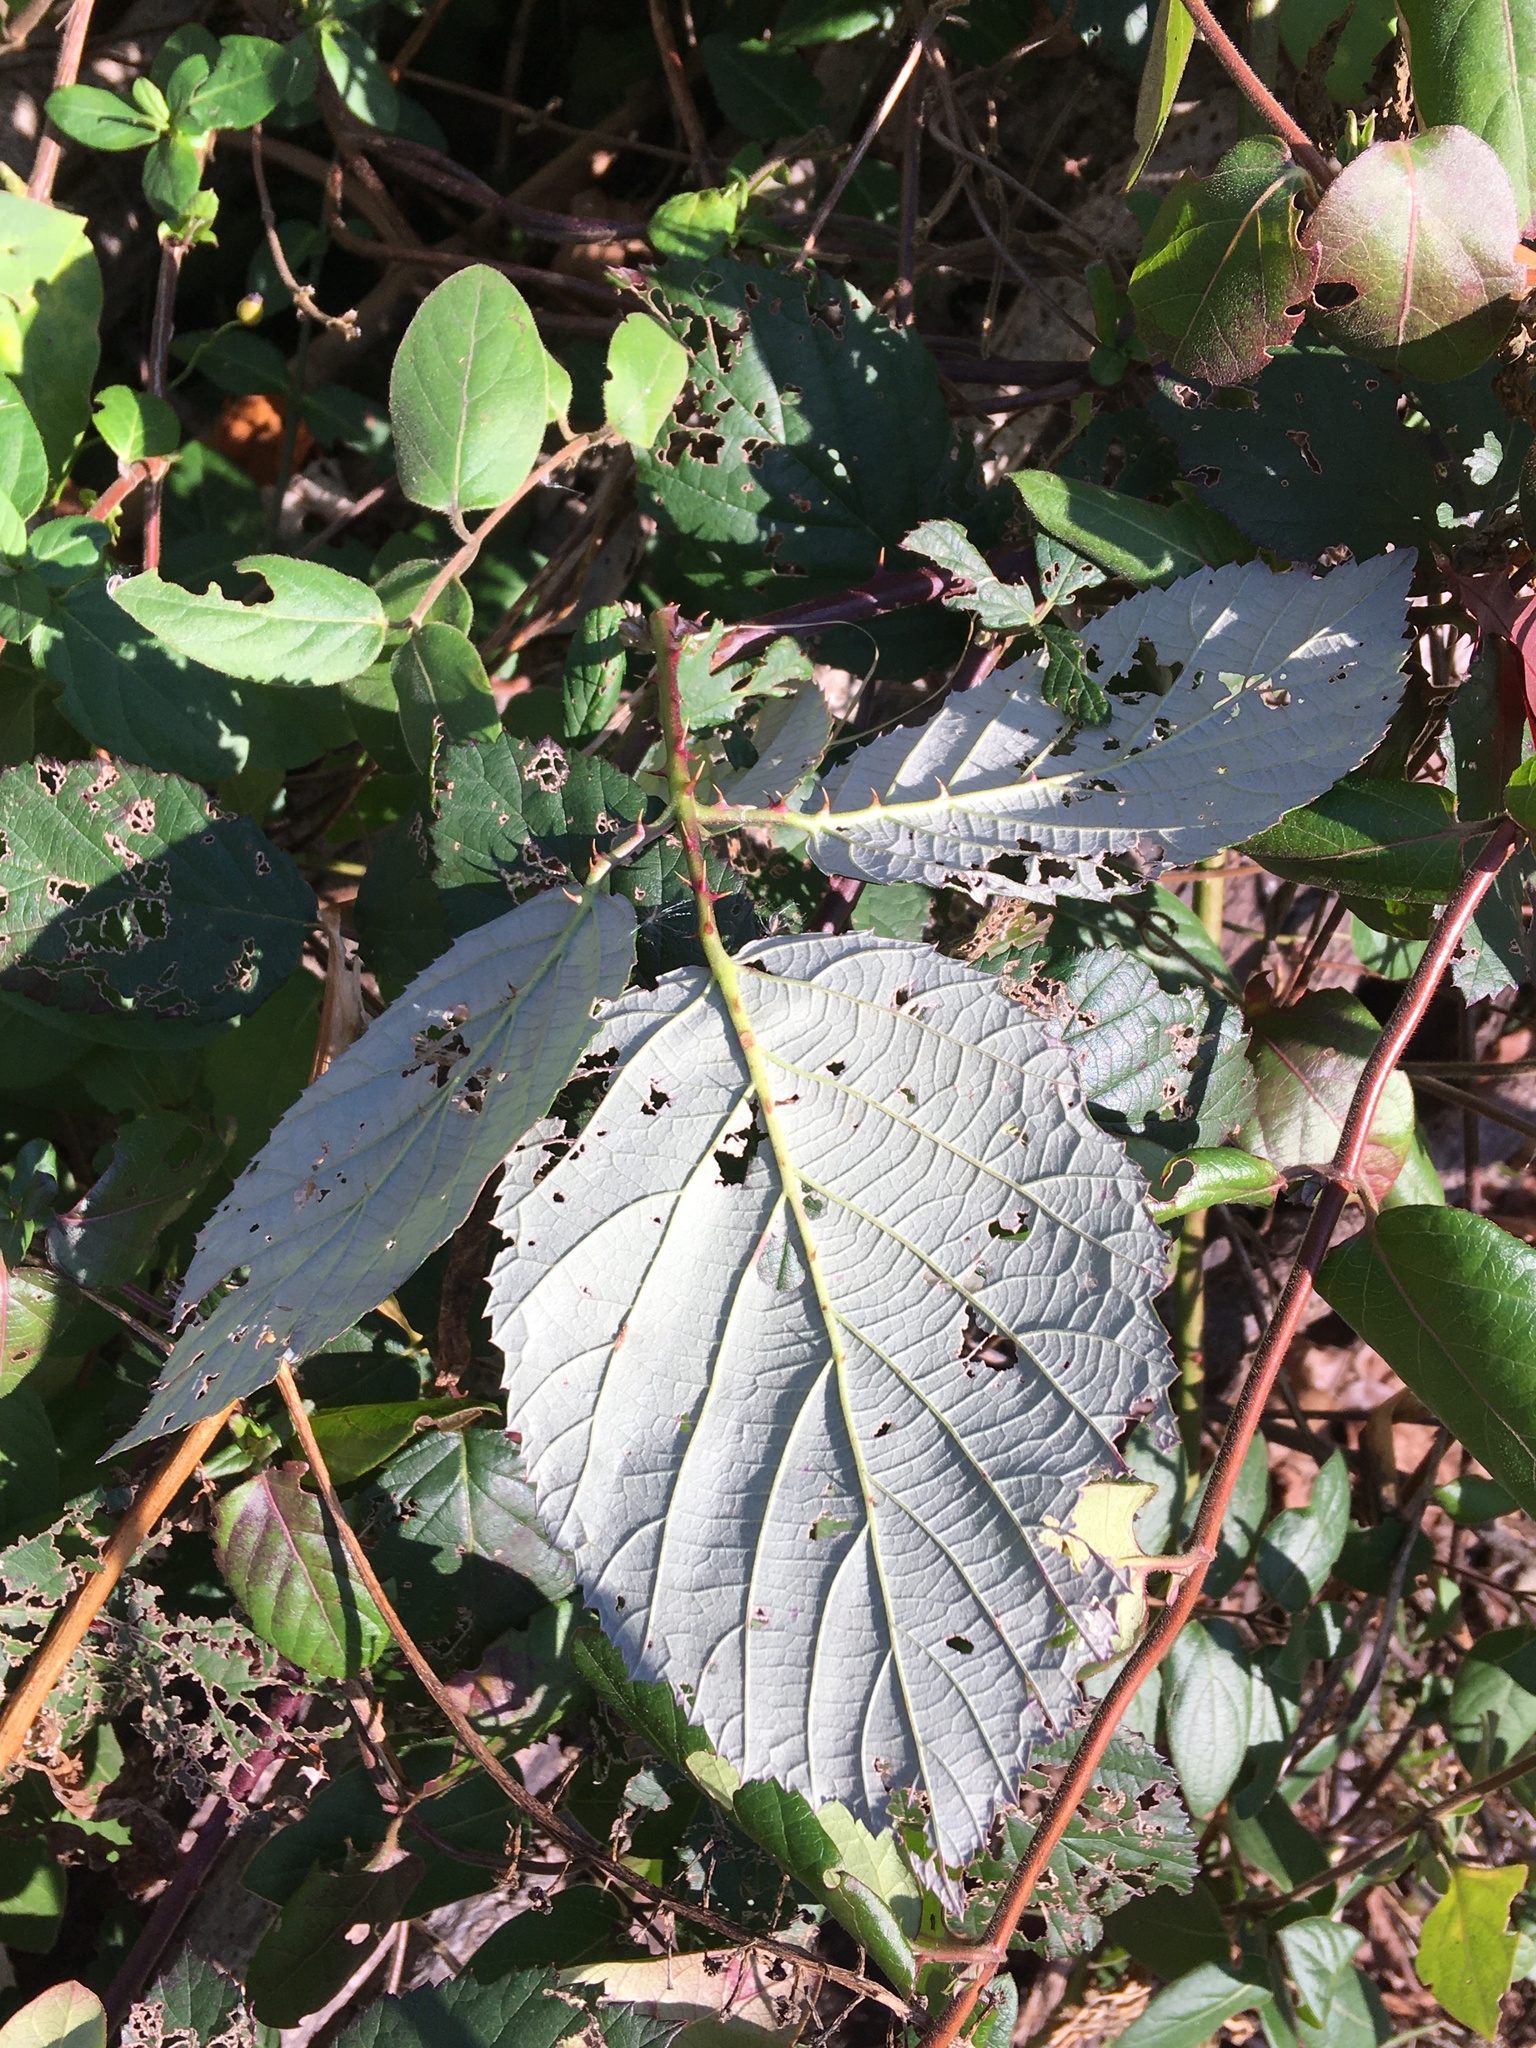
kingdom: Plantae
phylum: Tracheophyta
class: Magnoliopsida
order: Rosales
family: Rosaceae
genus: Rubus
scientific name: Rubus bifrons
